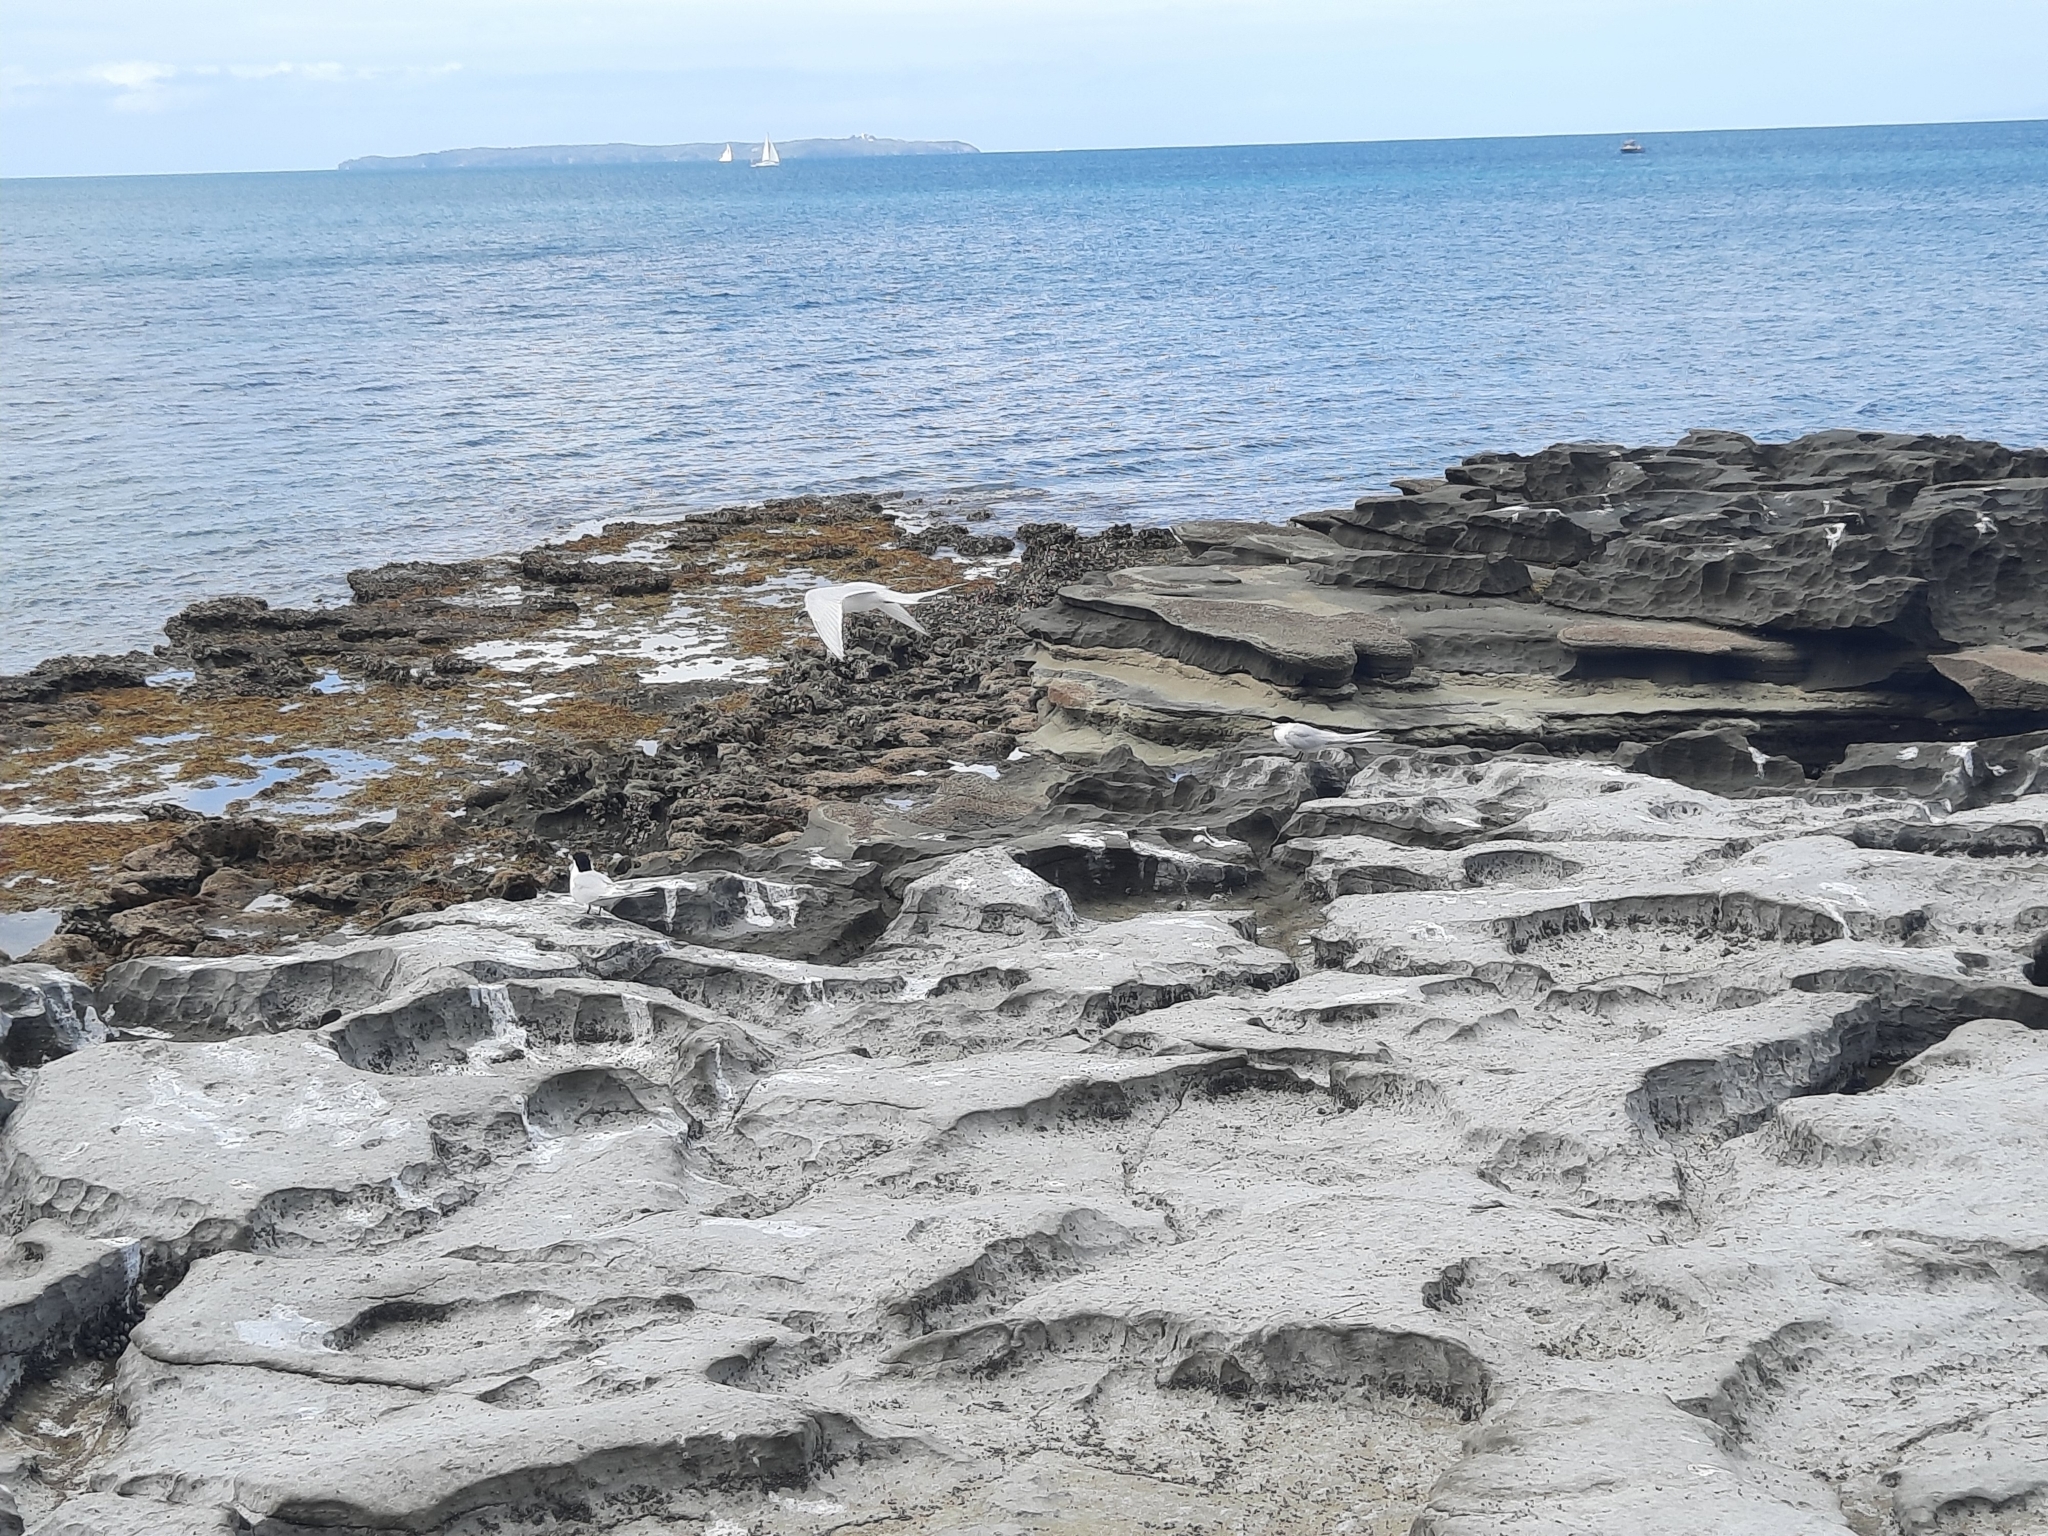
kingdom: Animalia
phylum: Chordata
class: Aves
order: Charadriiformes
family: Laridae
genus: Sterna
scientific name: Sterna striata
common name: White-fronted tern
